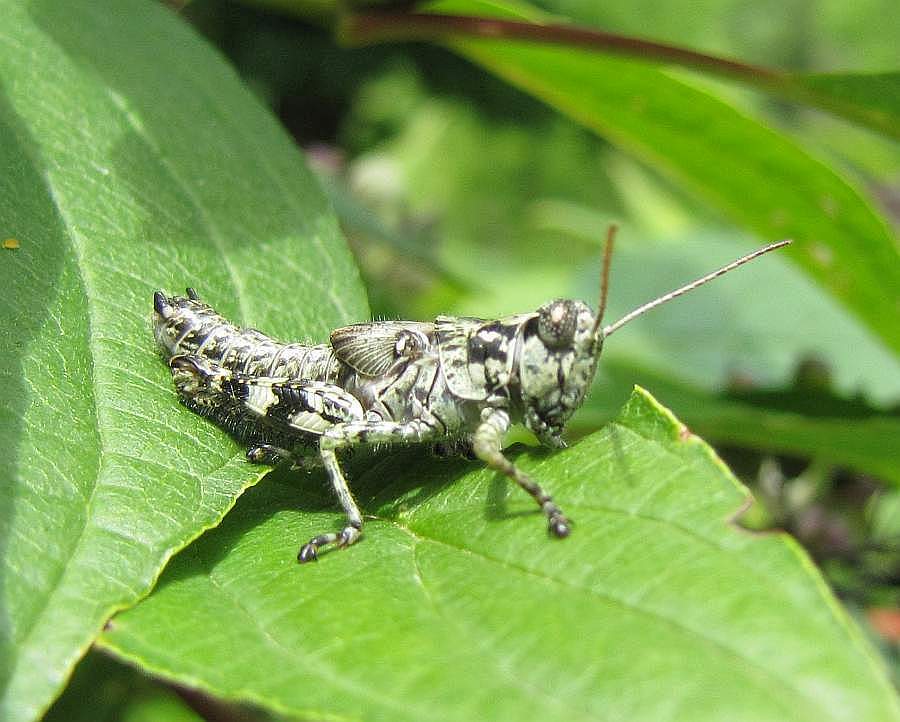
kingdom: Animalia
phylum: Arthropoda
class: Insecta
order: Orthoptera
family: Acrididae
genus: Melanoplus
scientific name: Melanoplus punctulatus
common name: Pine-tree spur-throat grasshopper
